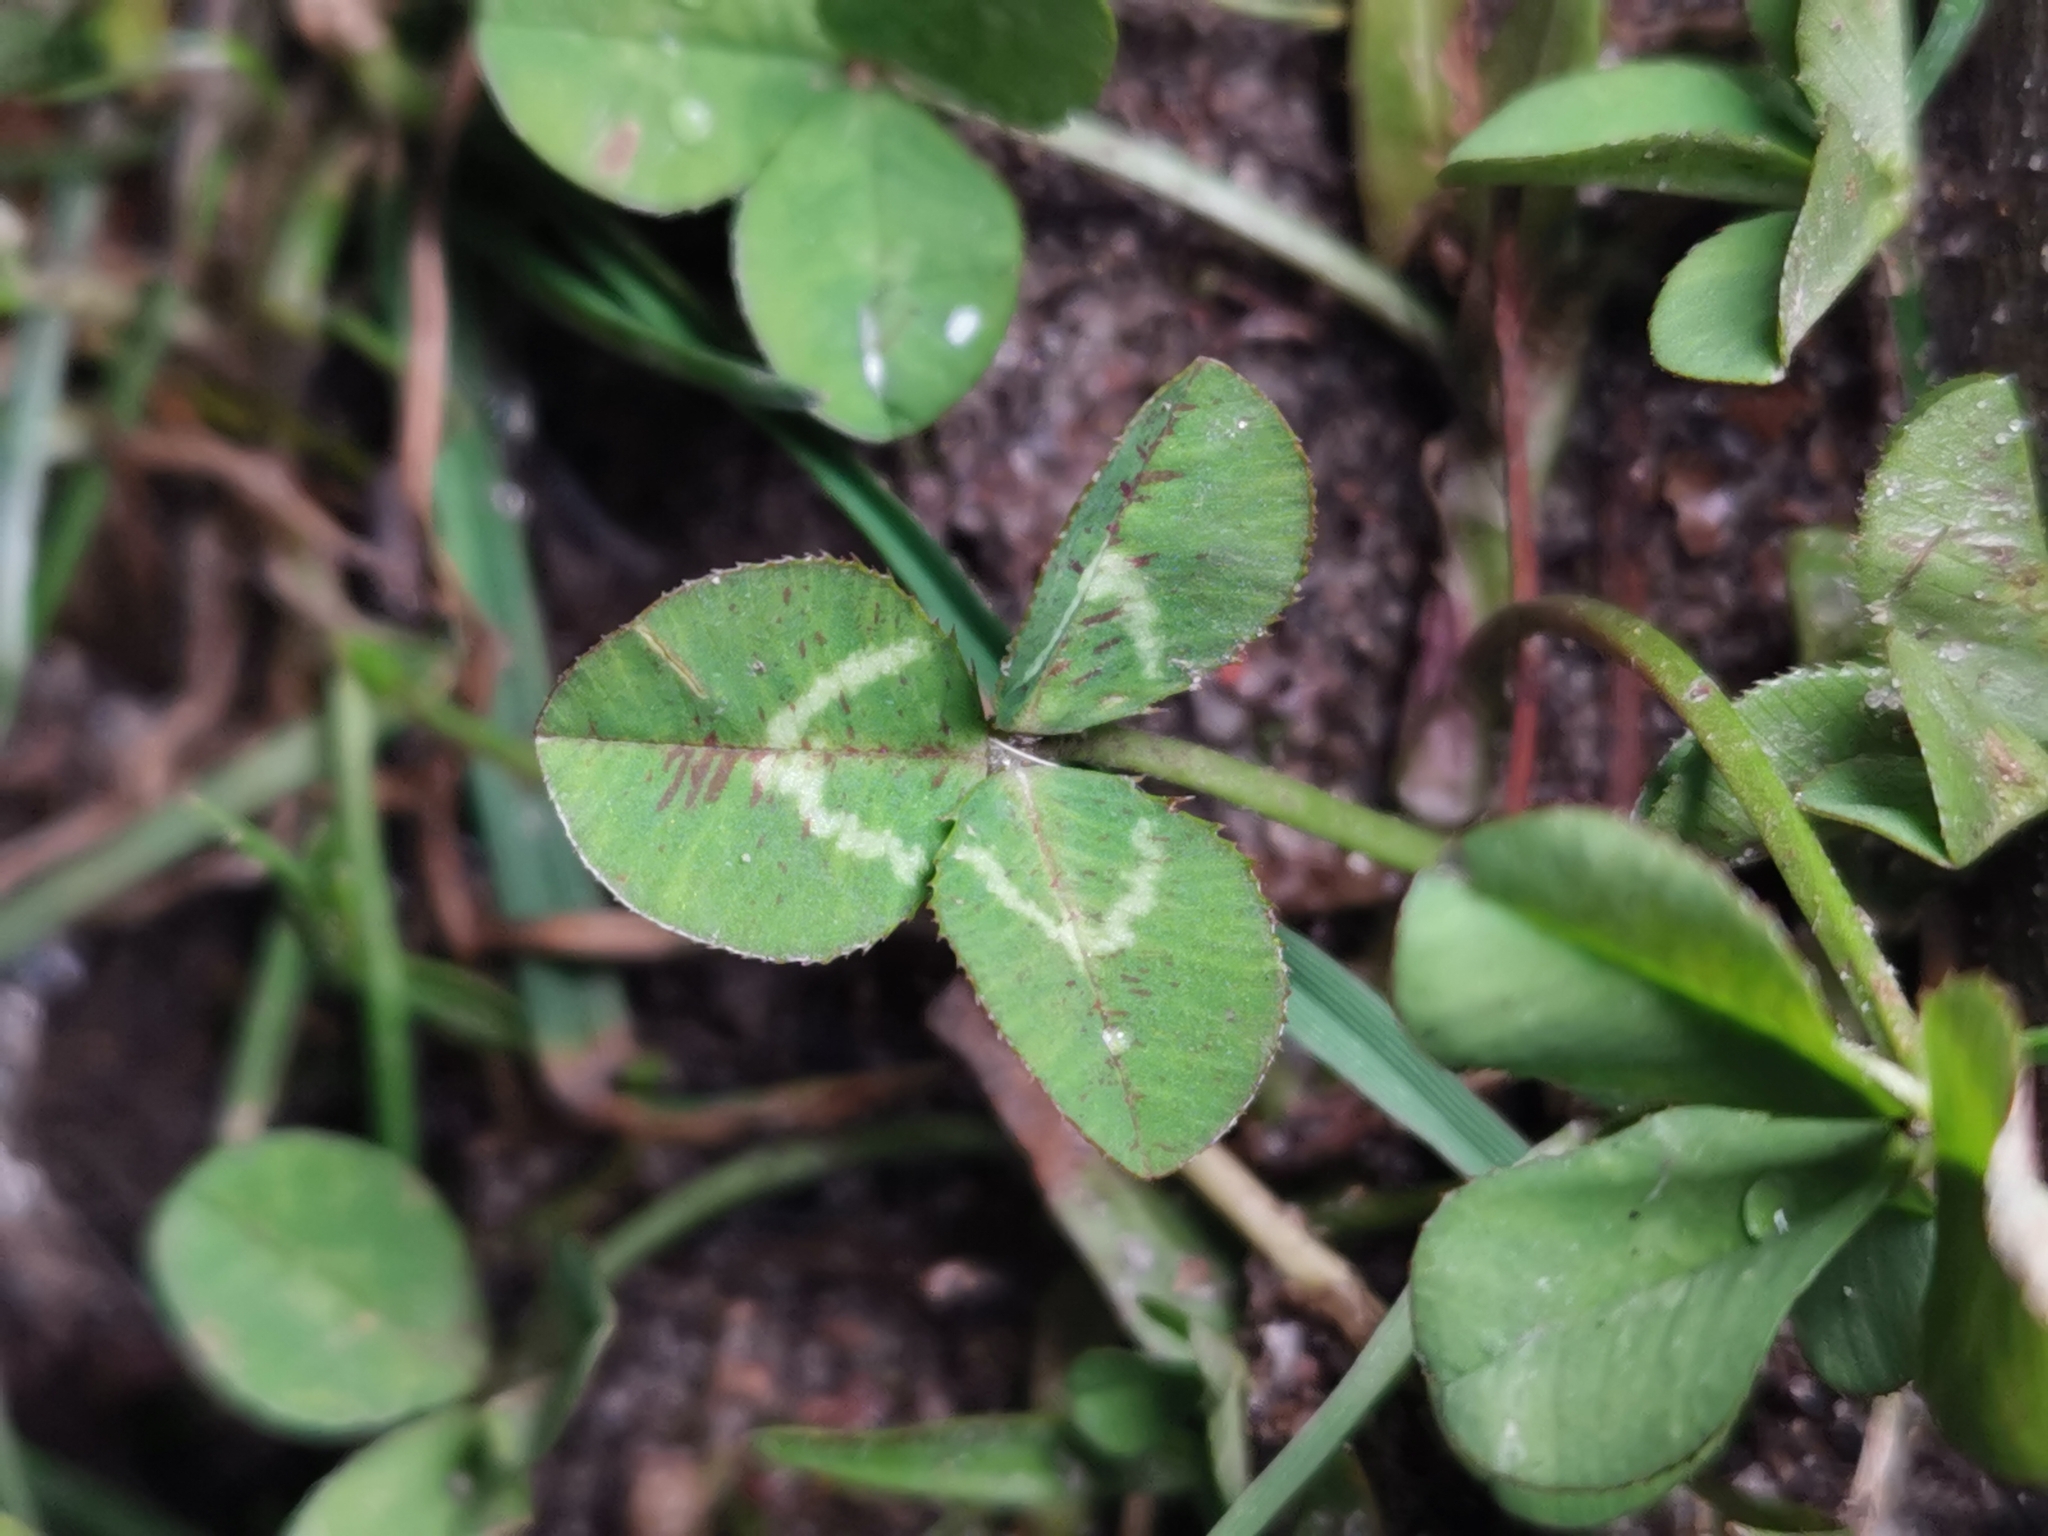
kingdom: Plantae
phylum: Tracheophyta
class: Magnoliopsida
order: Fabales
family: Fabaceae
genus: Trifolium
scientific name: Trifolium repens
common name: White clover
